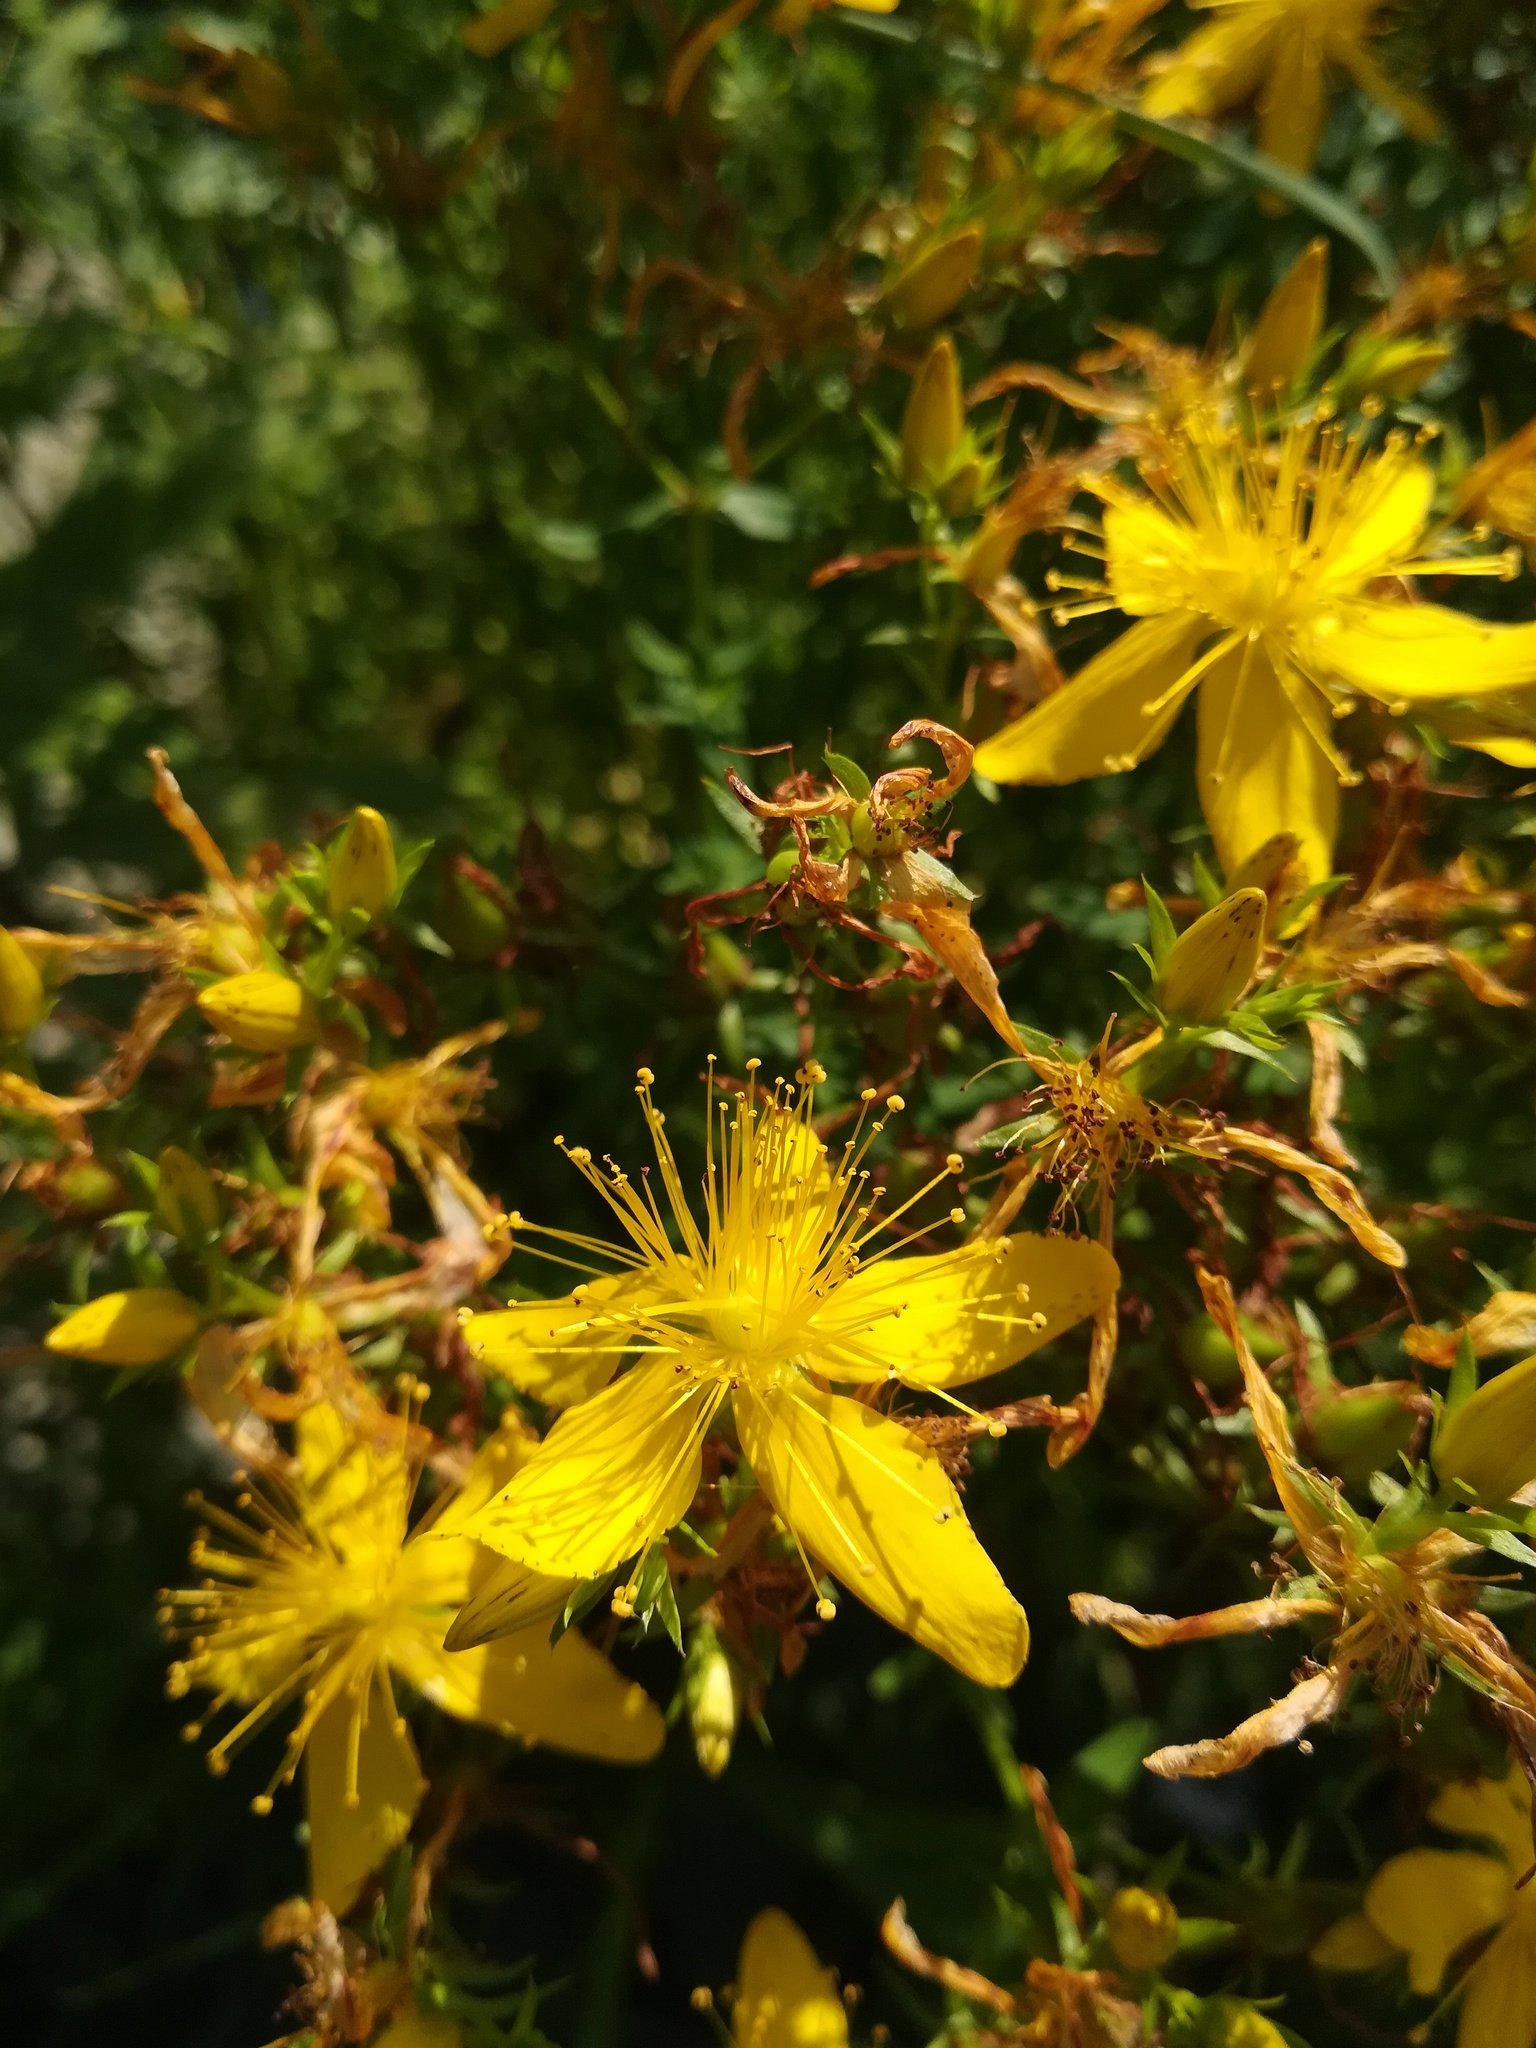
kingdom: Plantae
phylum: Tracheophyta
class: Magnoliopsida
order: Malpighiales
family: Hypericaceae
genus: Hypericum
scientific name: Hypericum perforatum
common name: Common st. johnswort
